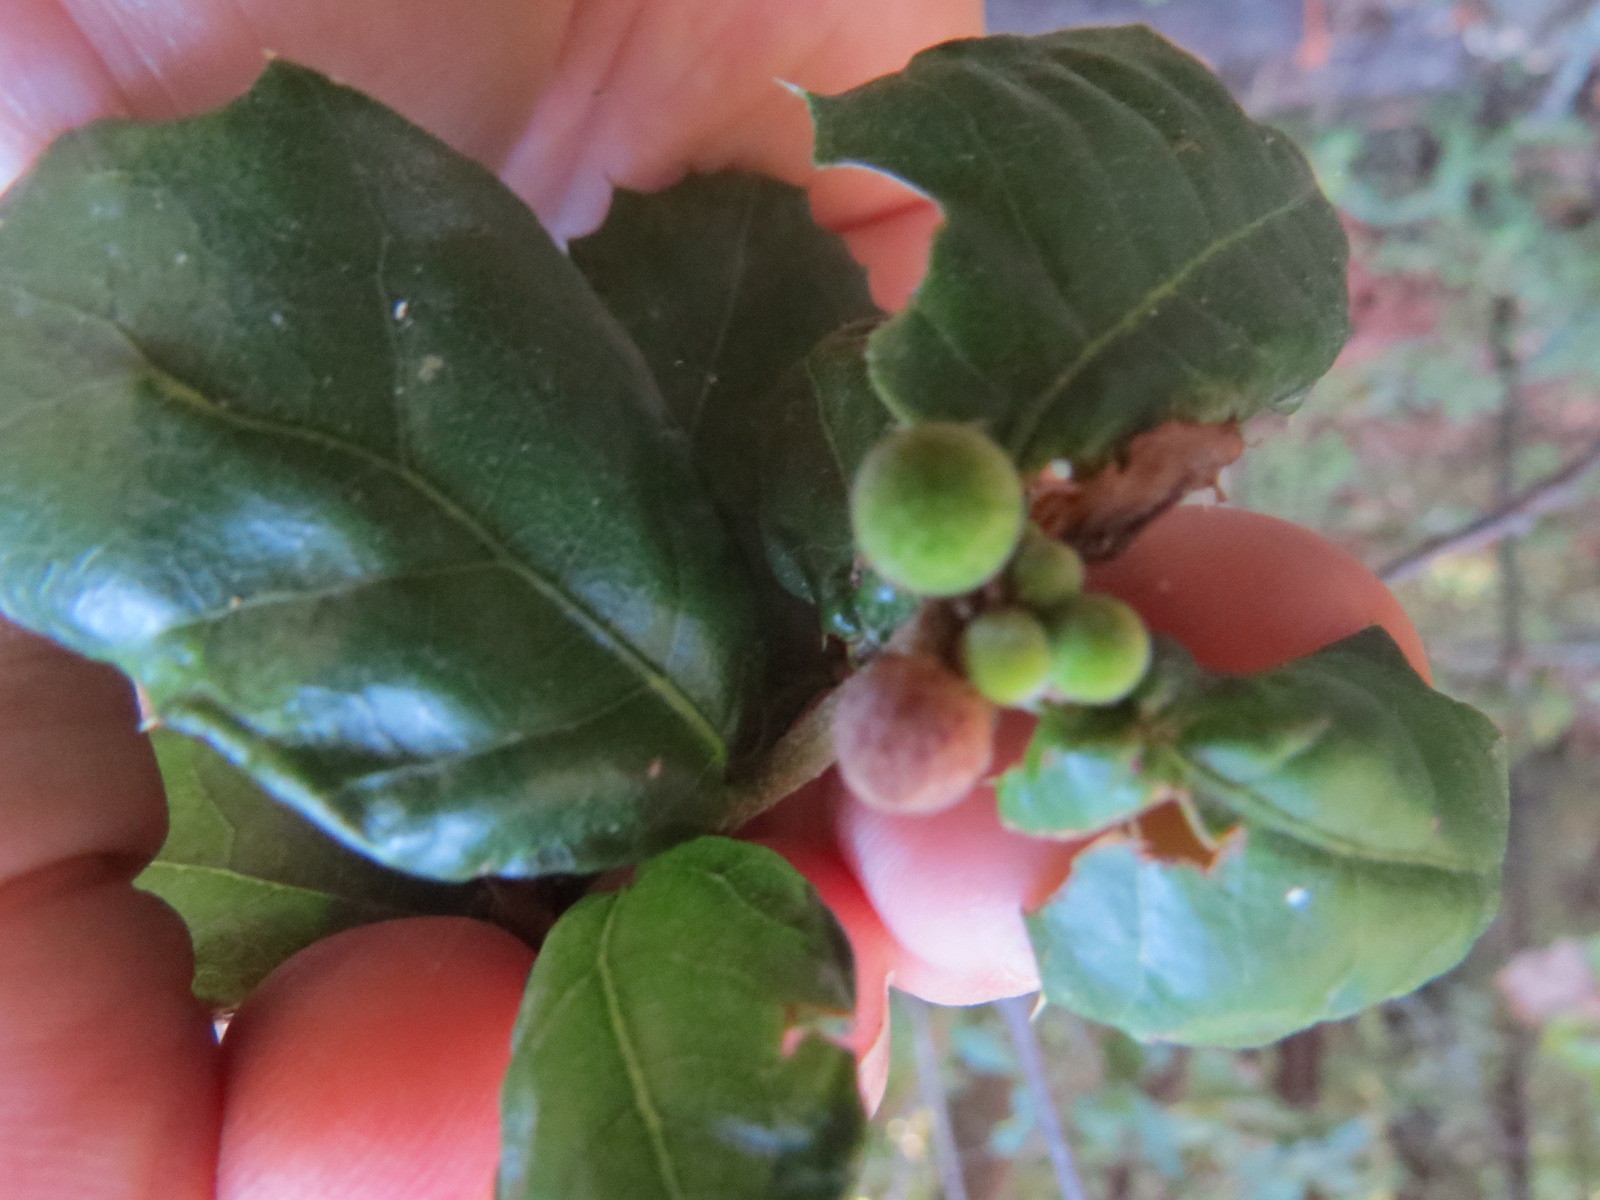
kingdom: Animalia
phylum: Arthropoda
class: Insecta
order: Hymenoptera
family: Cynipidae
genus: Callirhytis
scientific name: Callirhytis
